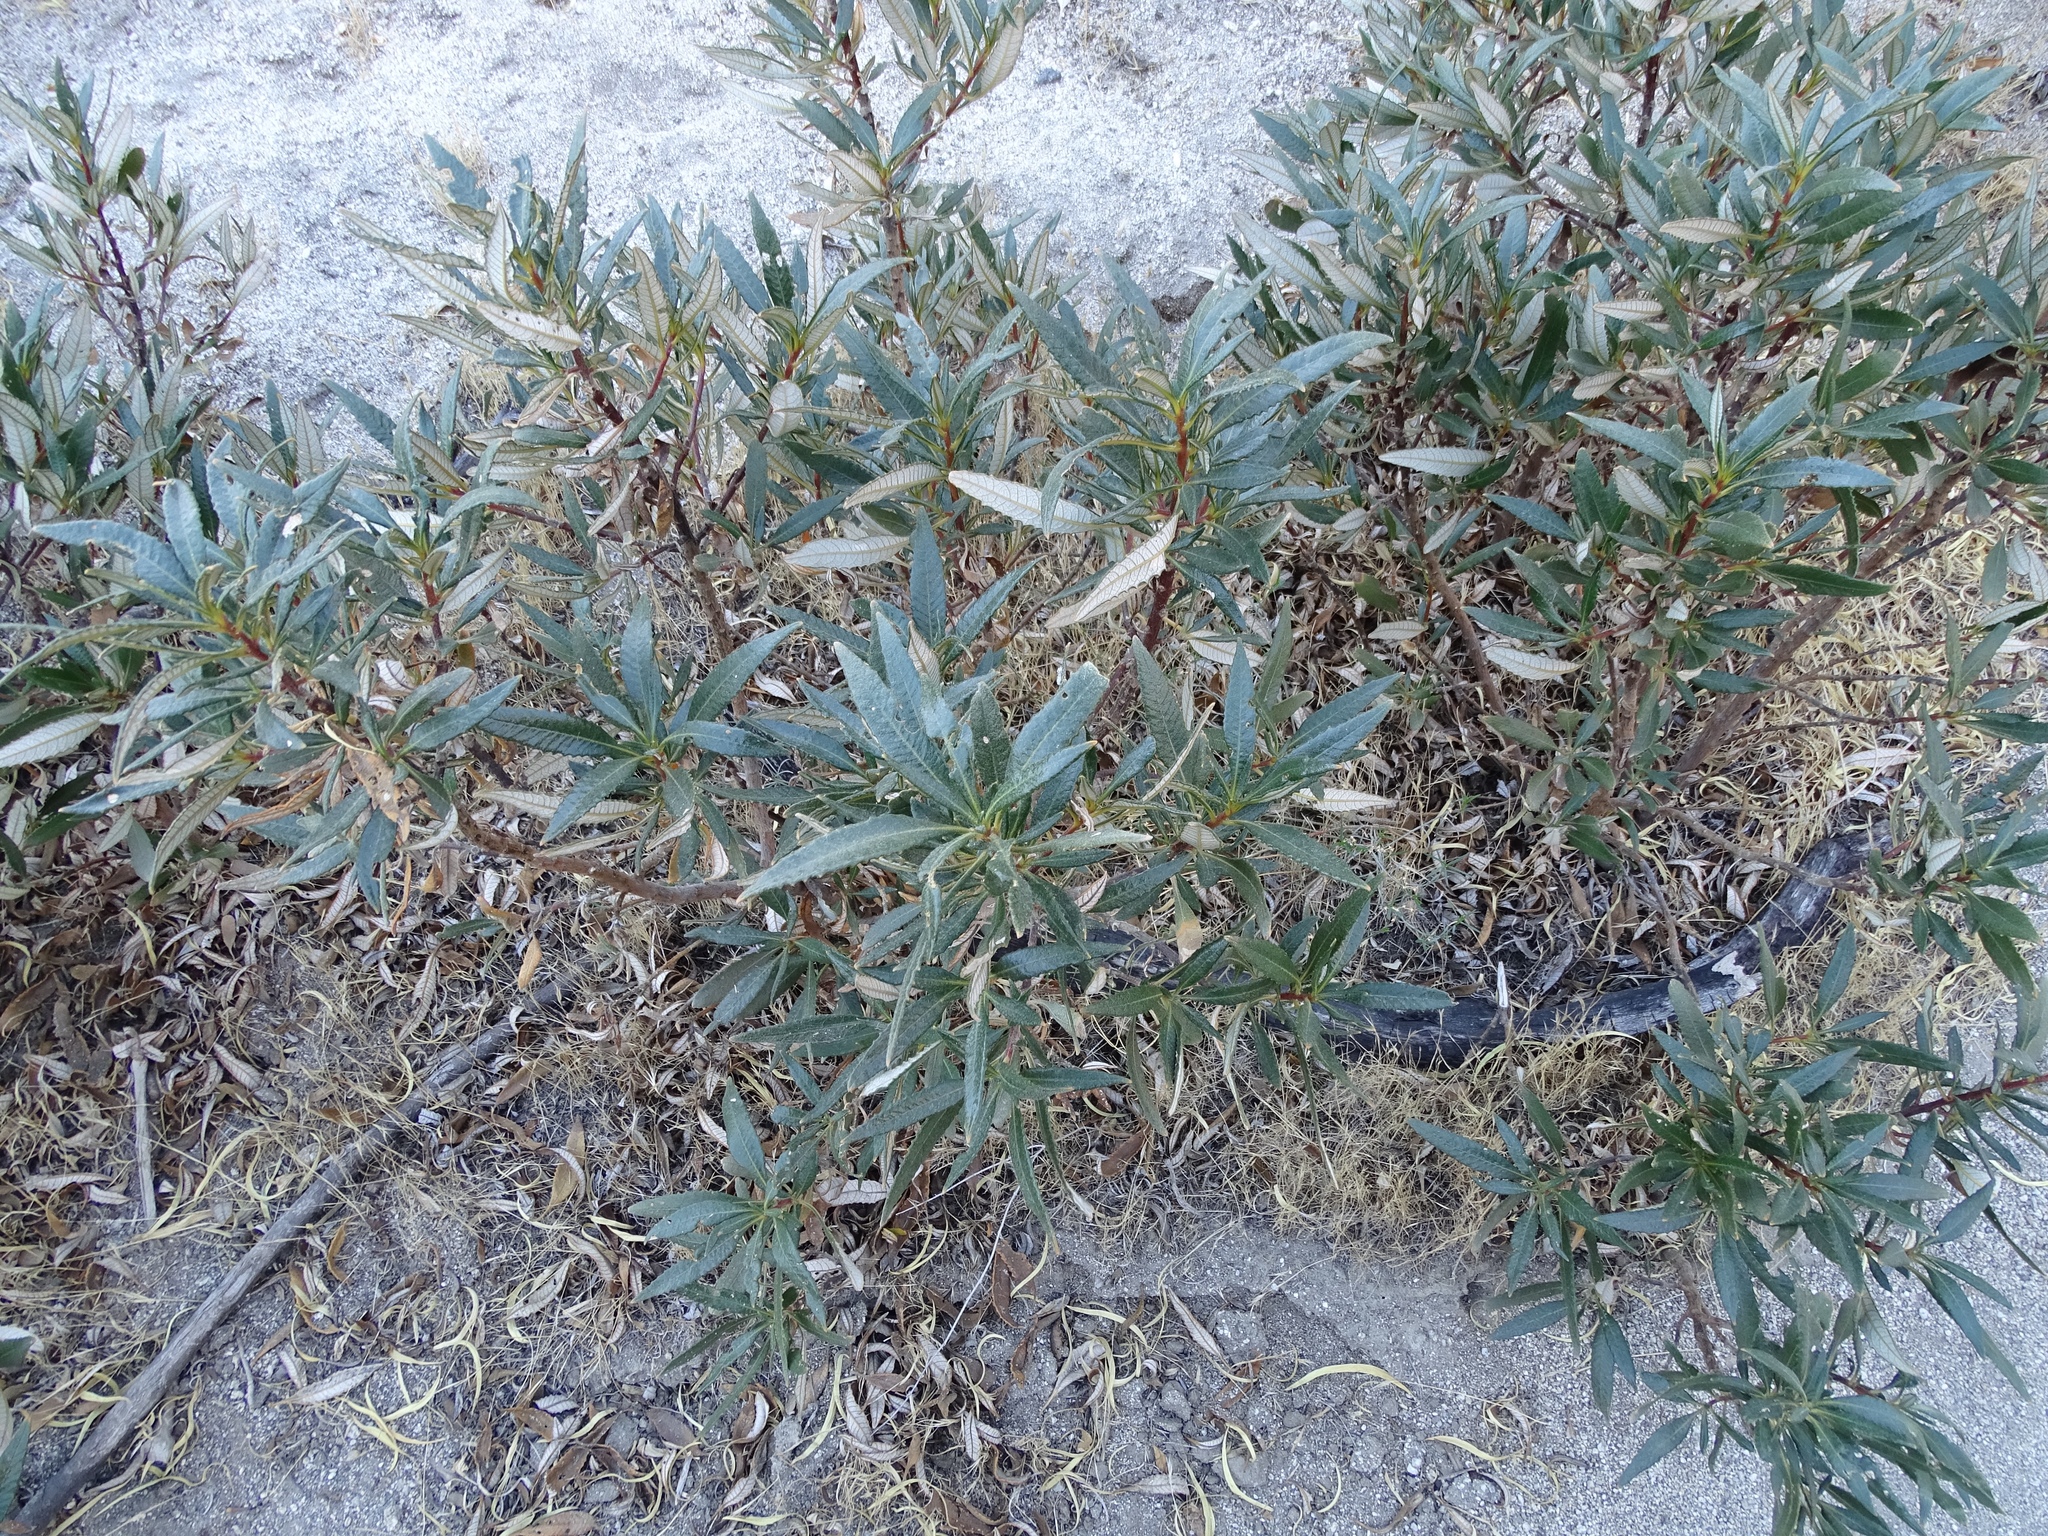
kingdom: Plantae
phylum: Tracheophyta
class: Magnoliopsida
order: Boraginales
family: Namaceae
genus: Eriodictyon
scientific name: Eriodictyon trichocalyx
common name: Hairy yerba-santa
